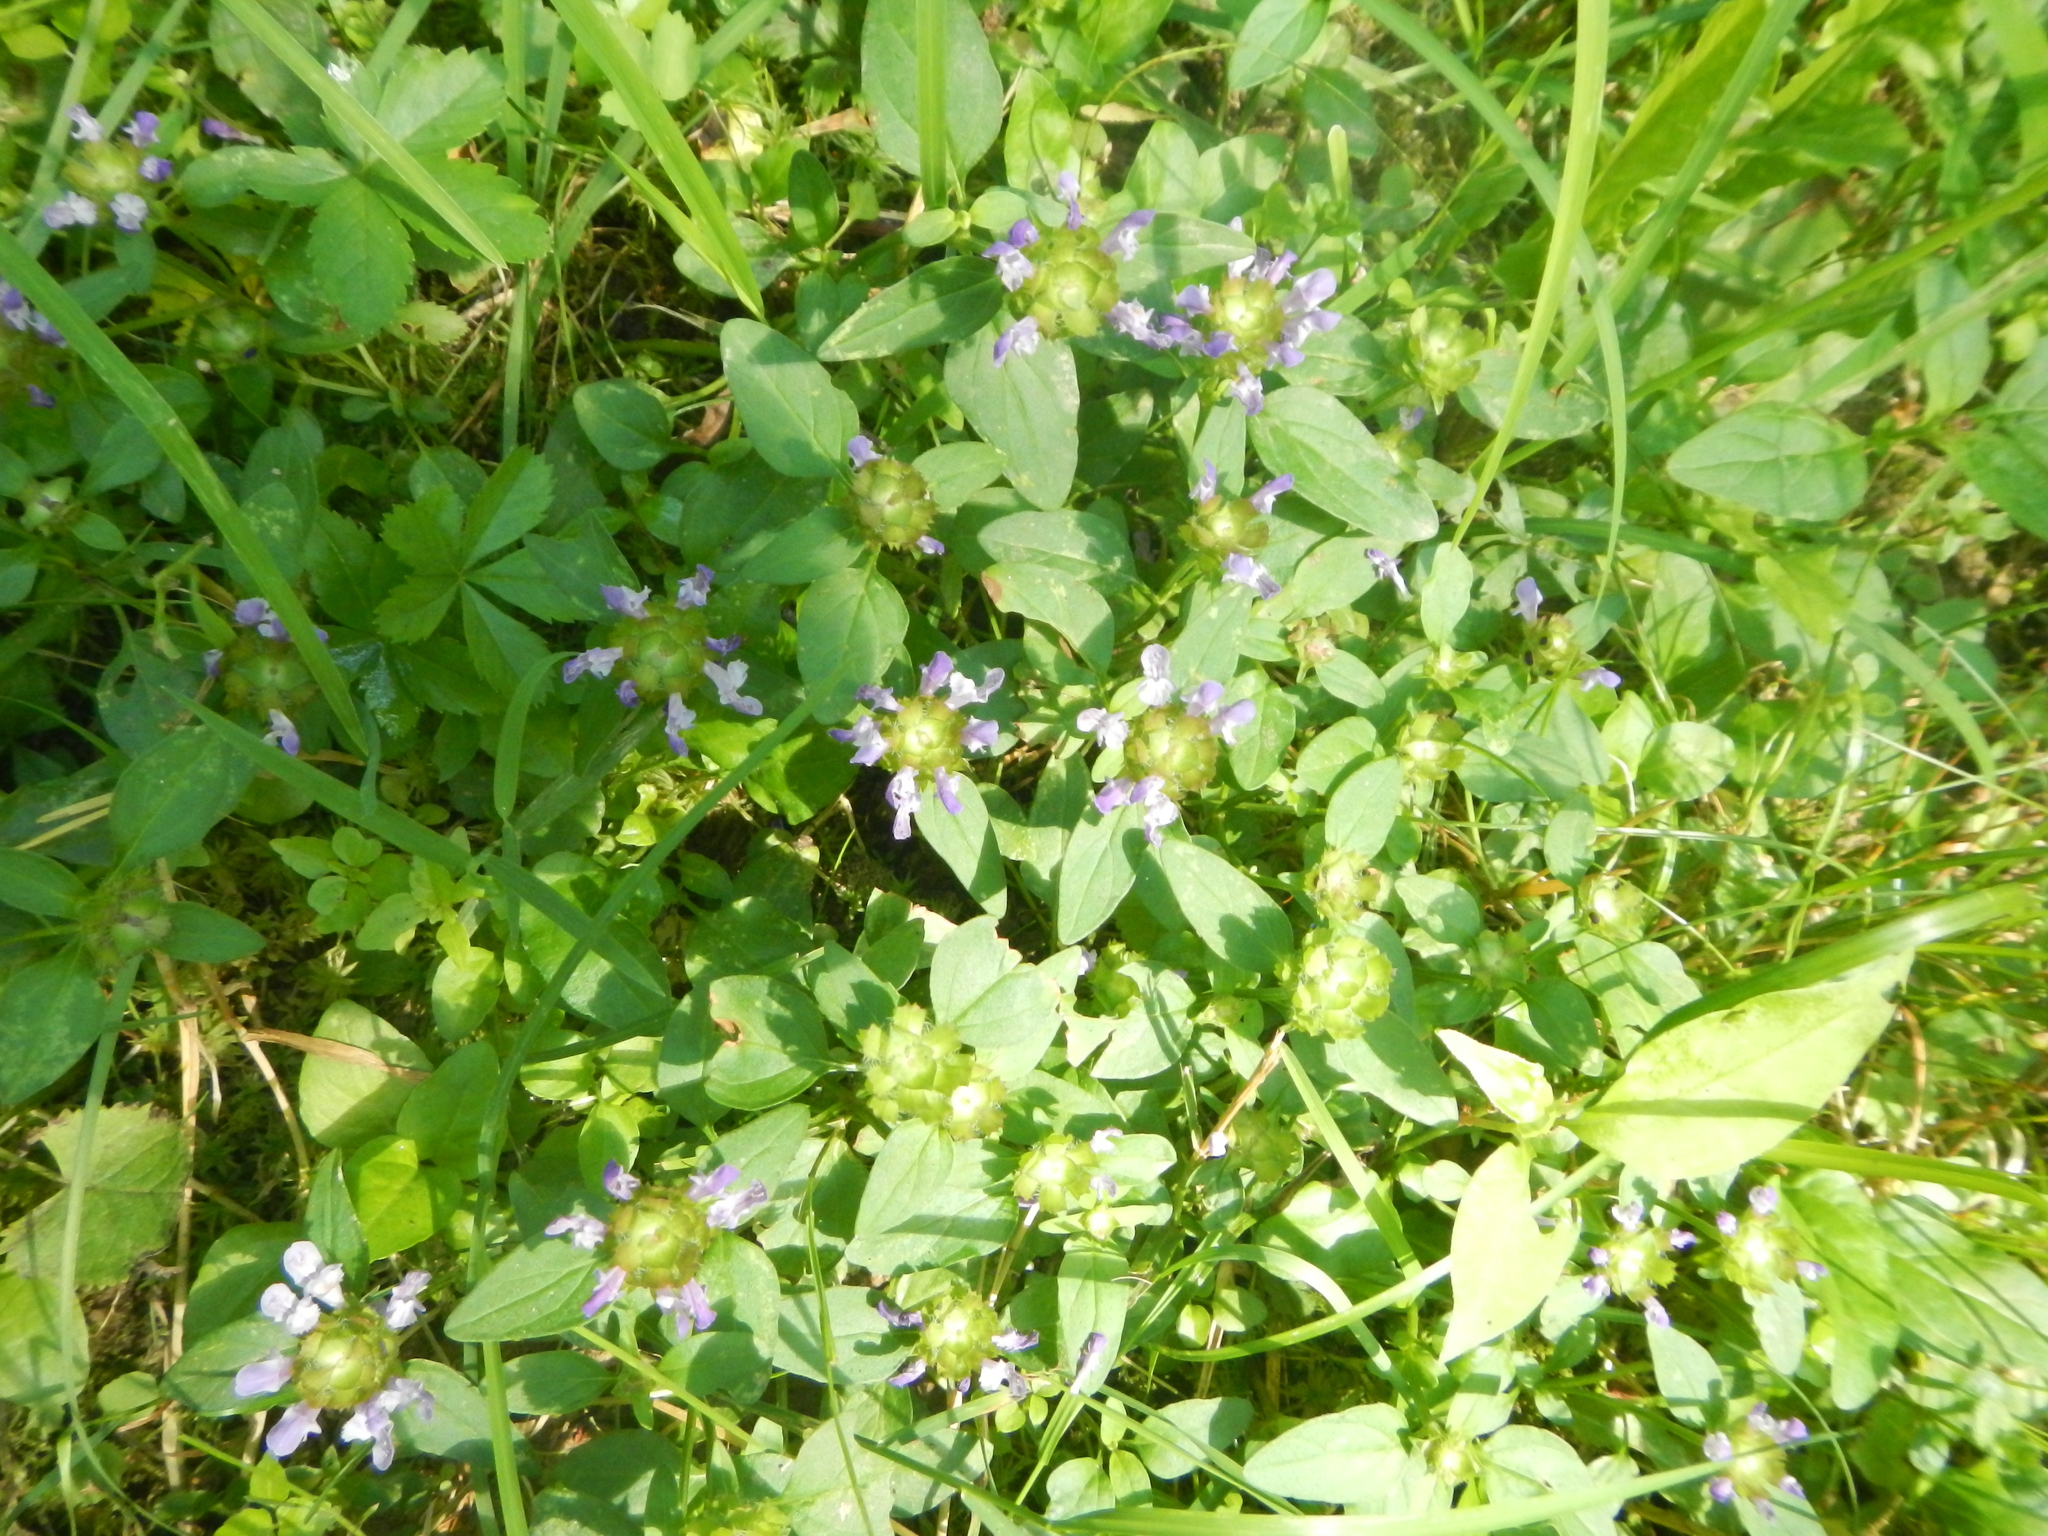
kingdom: Plantae
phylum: Tracheophyta
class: Magnoliopsida
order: Lamiales
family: Lamiaceae
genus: Prunella
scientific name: Prunella vulgaris
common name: Heal-all
